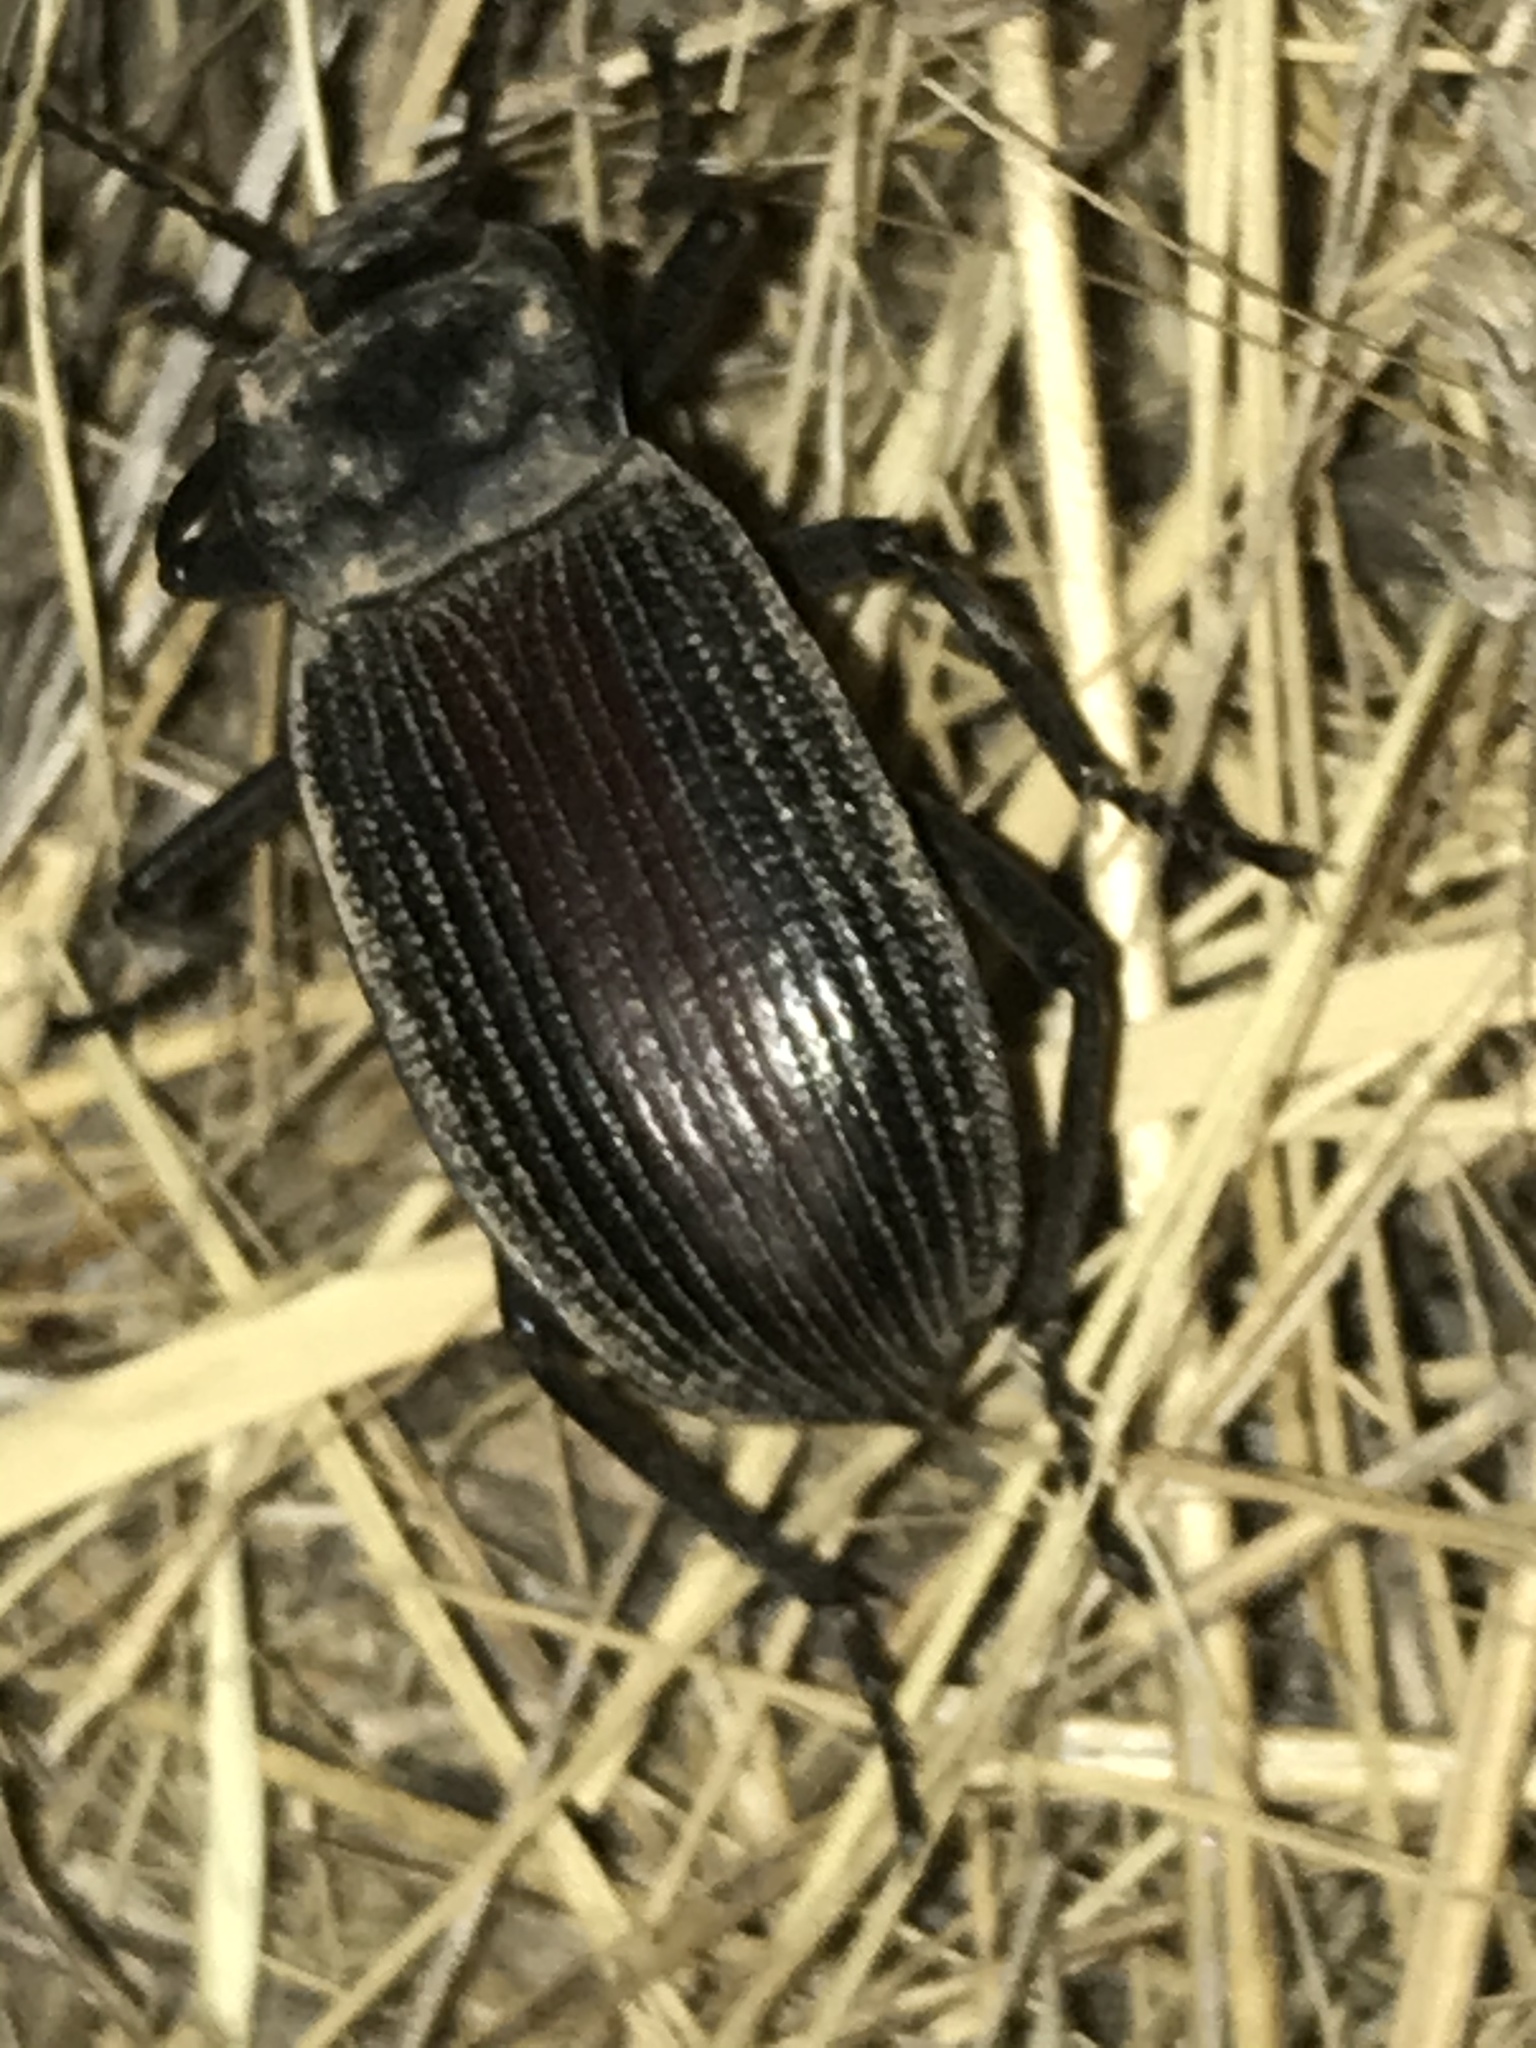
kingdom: Animalia
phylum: Arthropoda
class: Insecta
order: Coleoptera
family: Tenebrionidae
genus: Eleodes
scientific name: Eleodes suturalis
